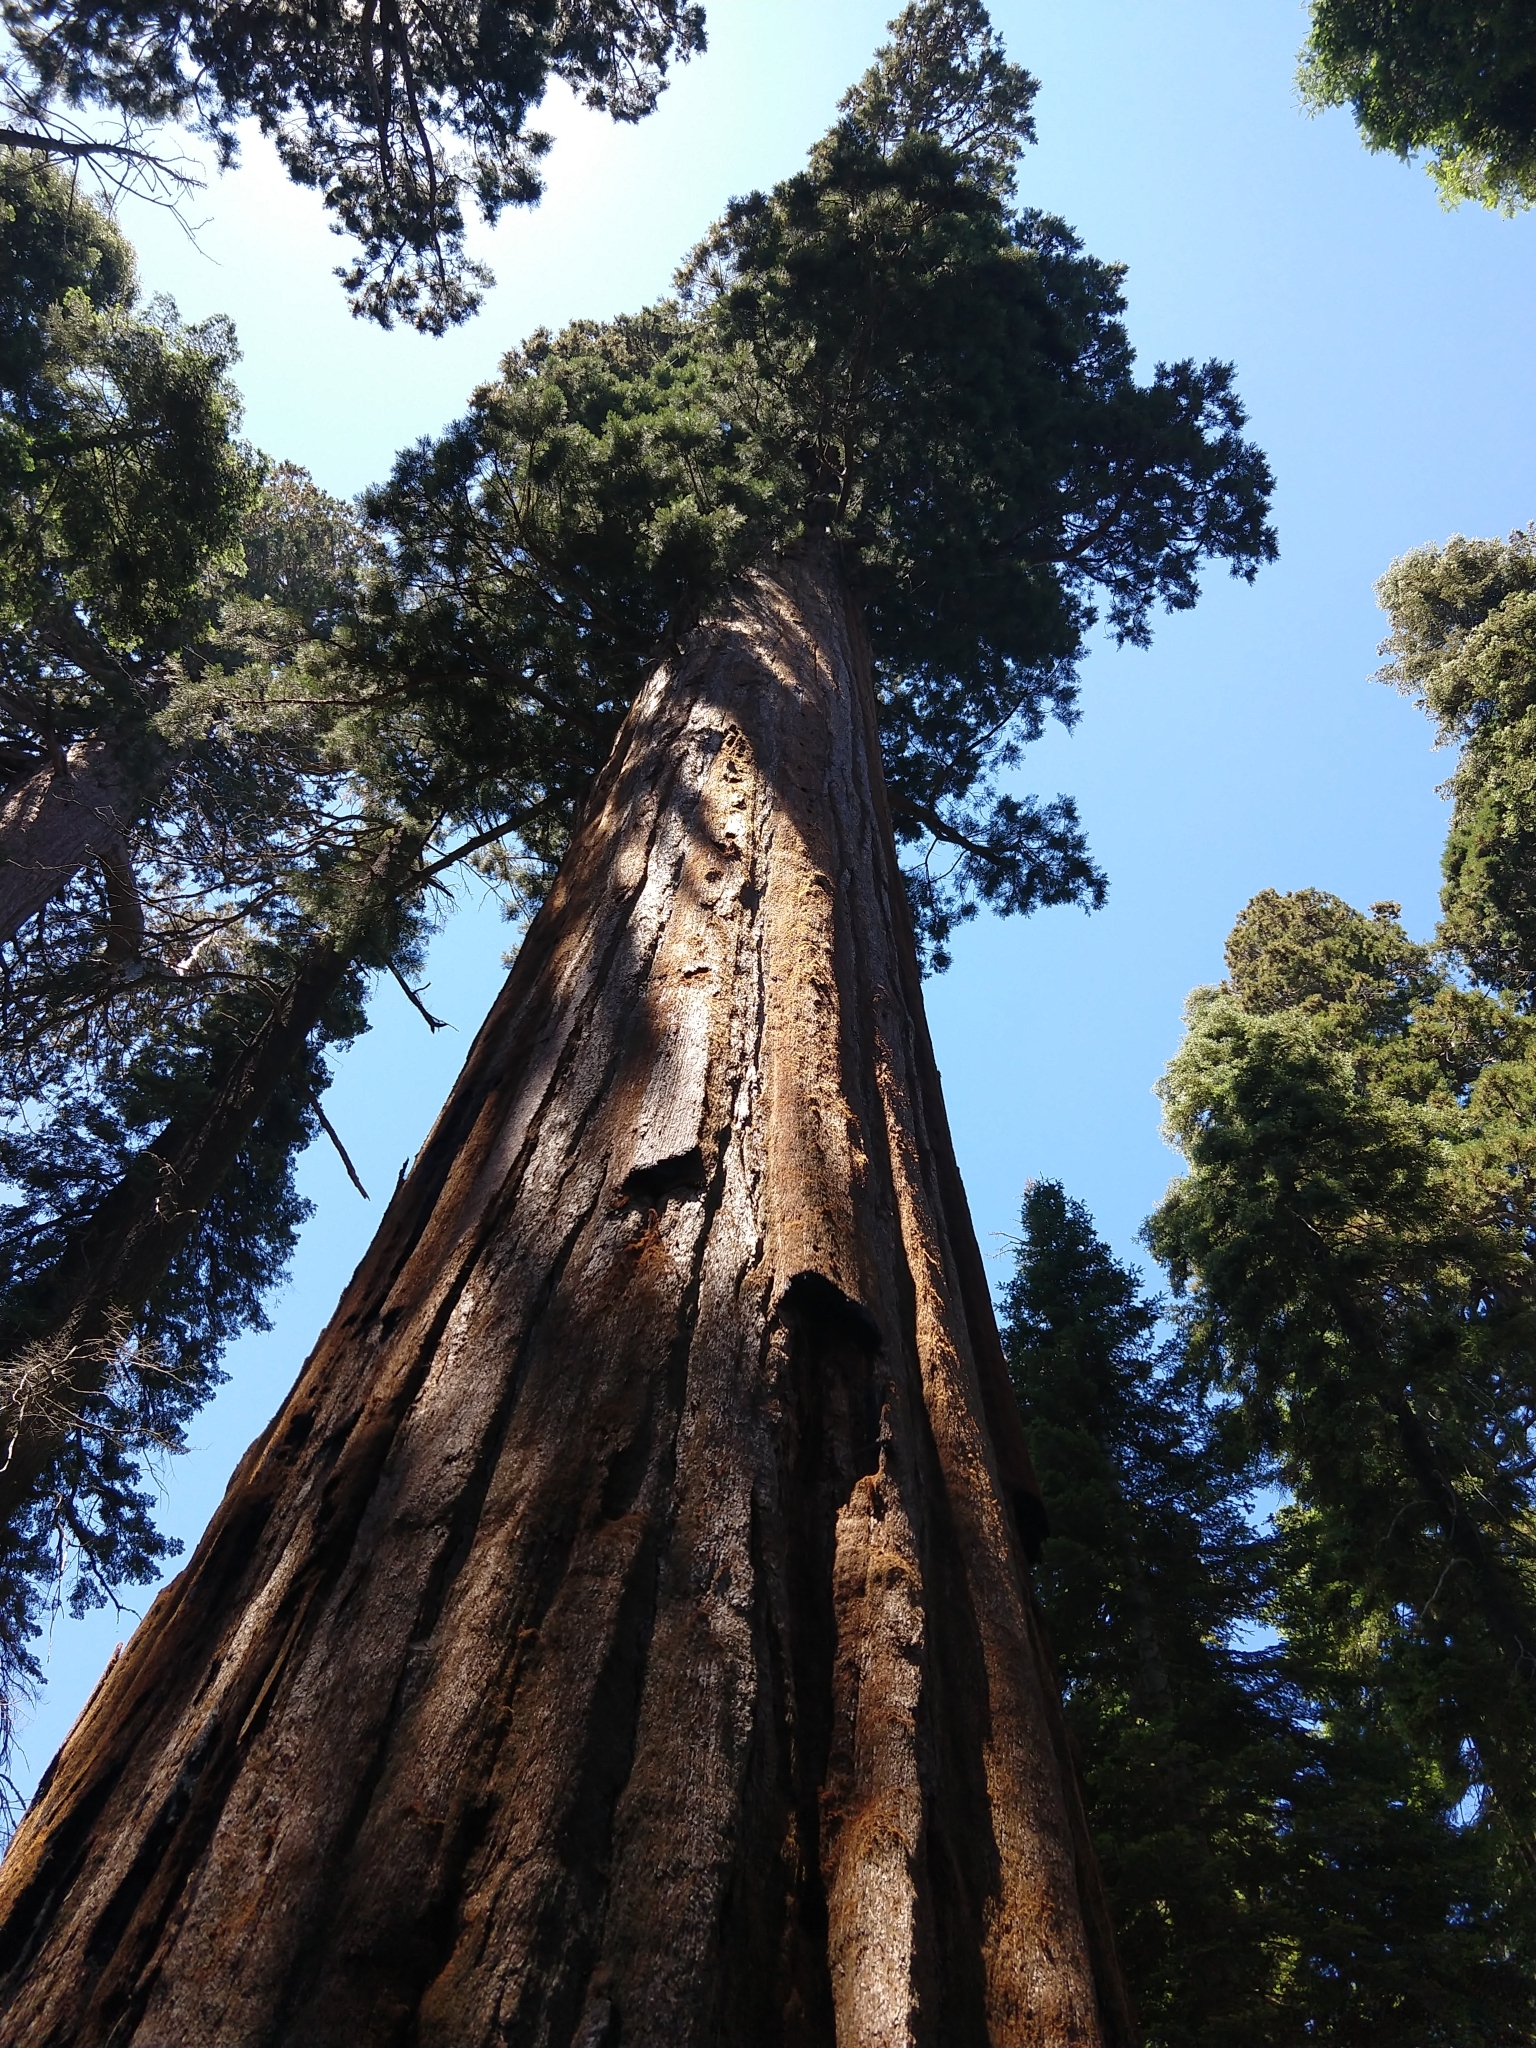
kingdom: Plantae
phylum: Tracheophyta
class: Pinopsida
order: Pinales
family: Cupressaceae
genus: Sequoiadendron
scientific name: Sequoiadendron giganteum
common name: Wellingtonia
